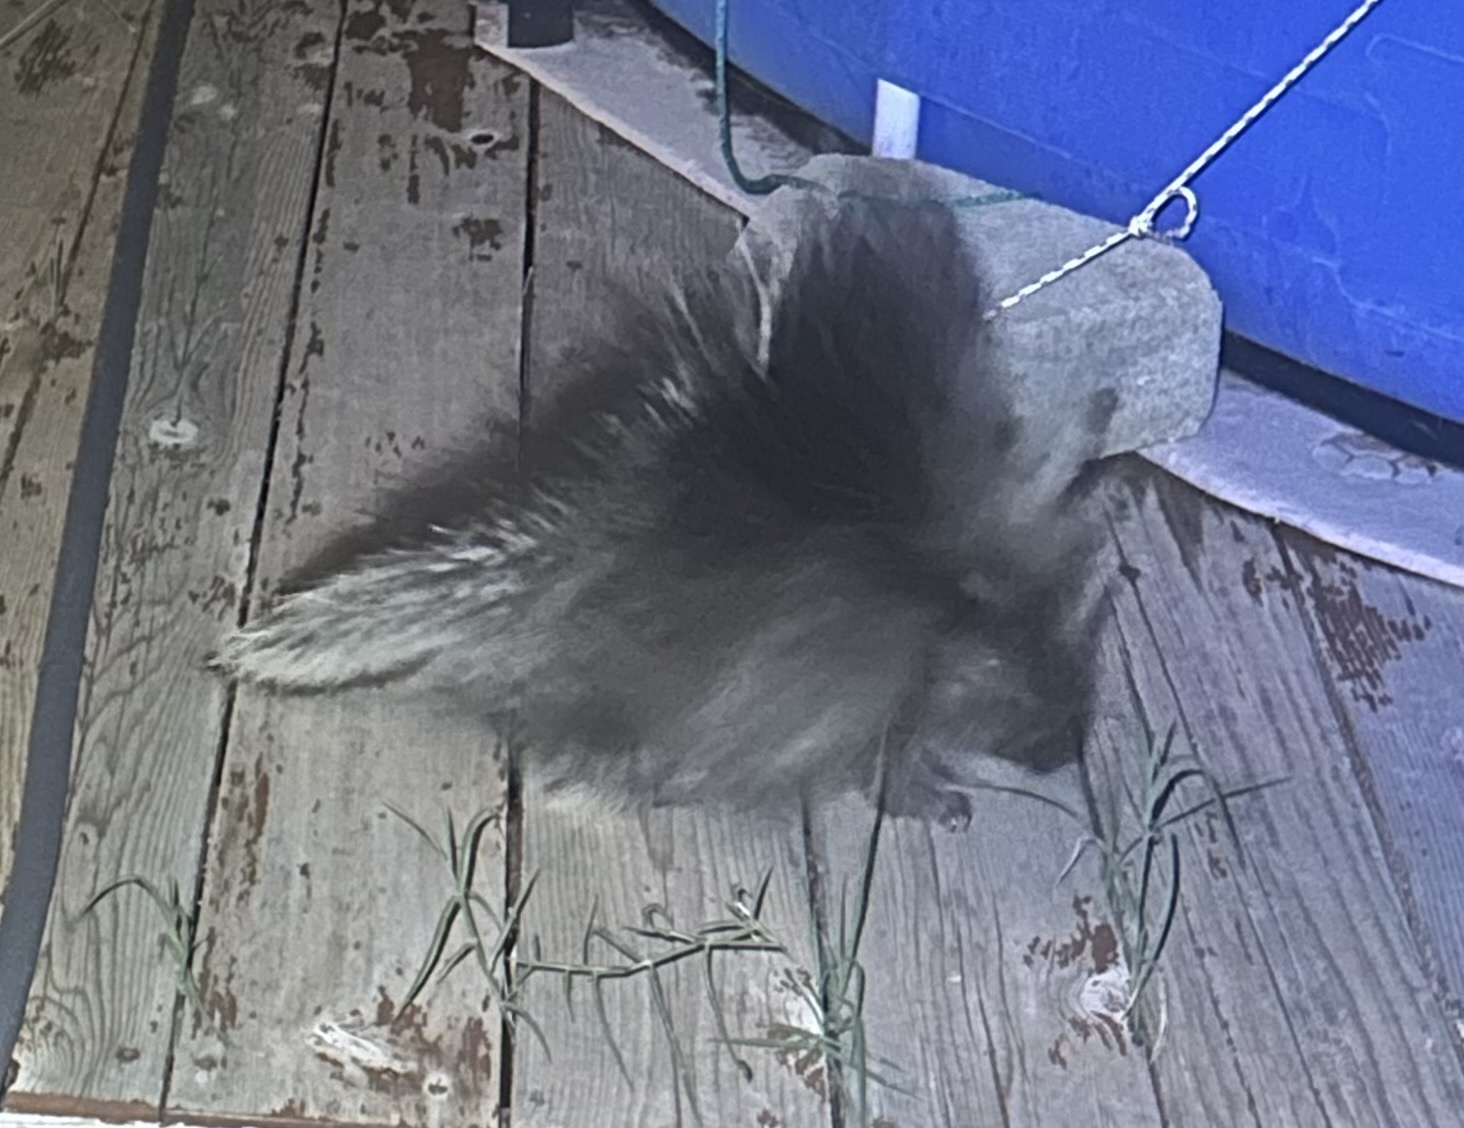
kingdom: Animalia
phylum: Chordata
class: Mammalia
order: Rodentia
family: Erethizontidae
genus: Erethizon
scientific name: Erethizon dorsatus
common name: North american porcupine
